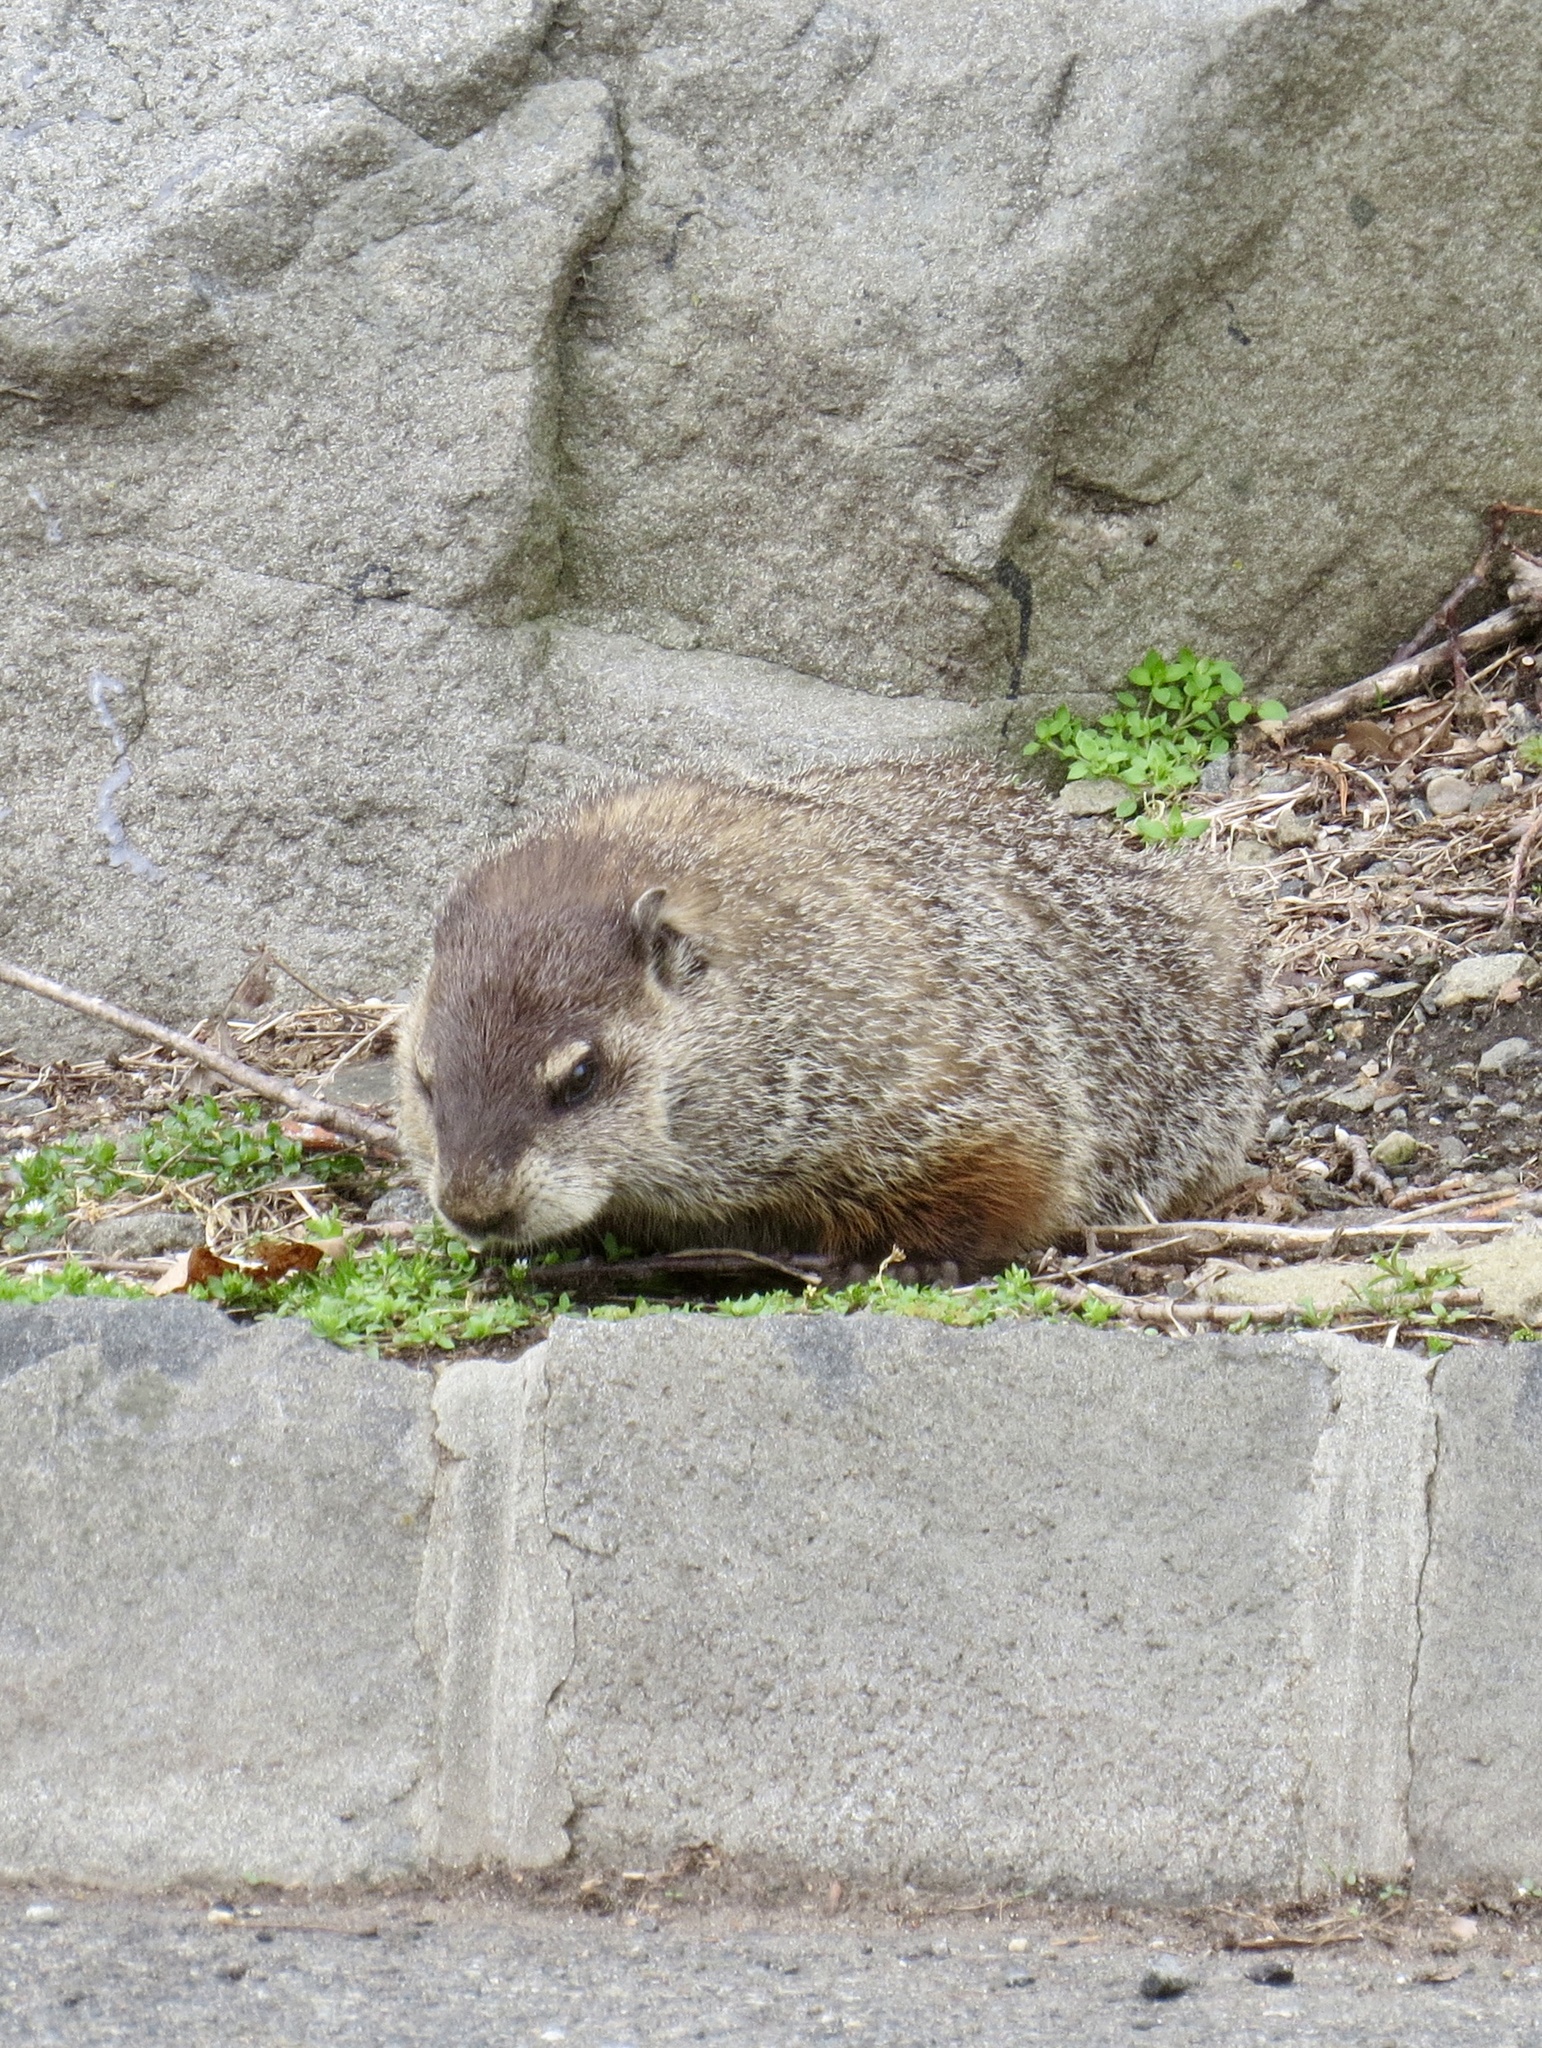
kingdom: Animalia
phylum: Chordata
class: Mammalia
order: Rodentia
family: Sciuridae
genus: Marmota
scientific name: Marmota monax
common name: Groundhog
